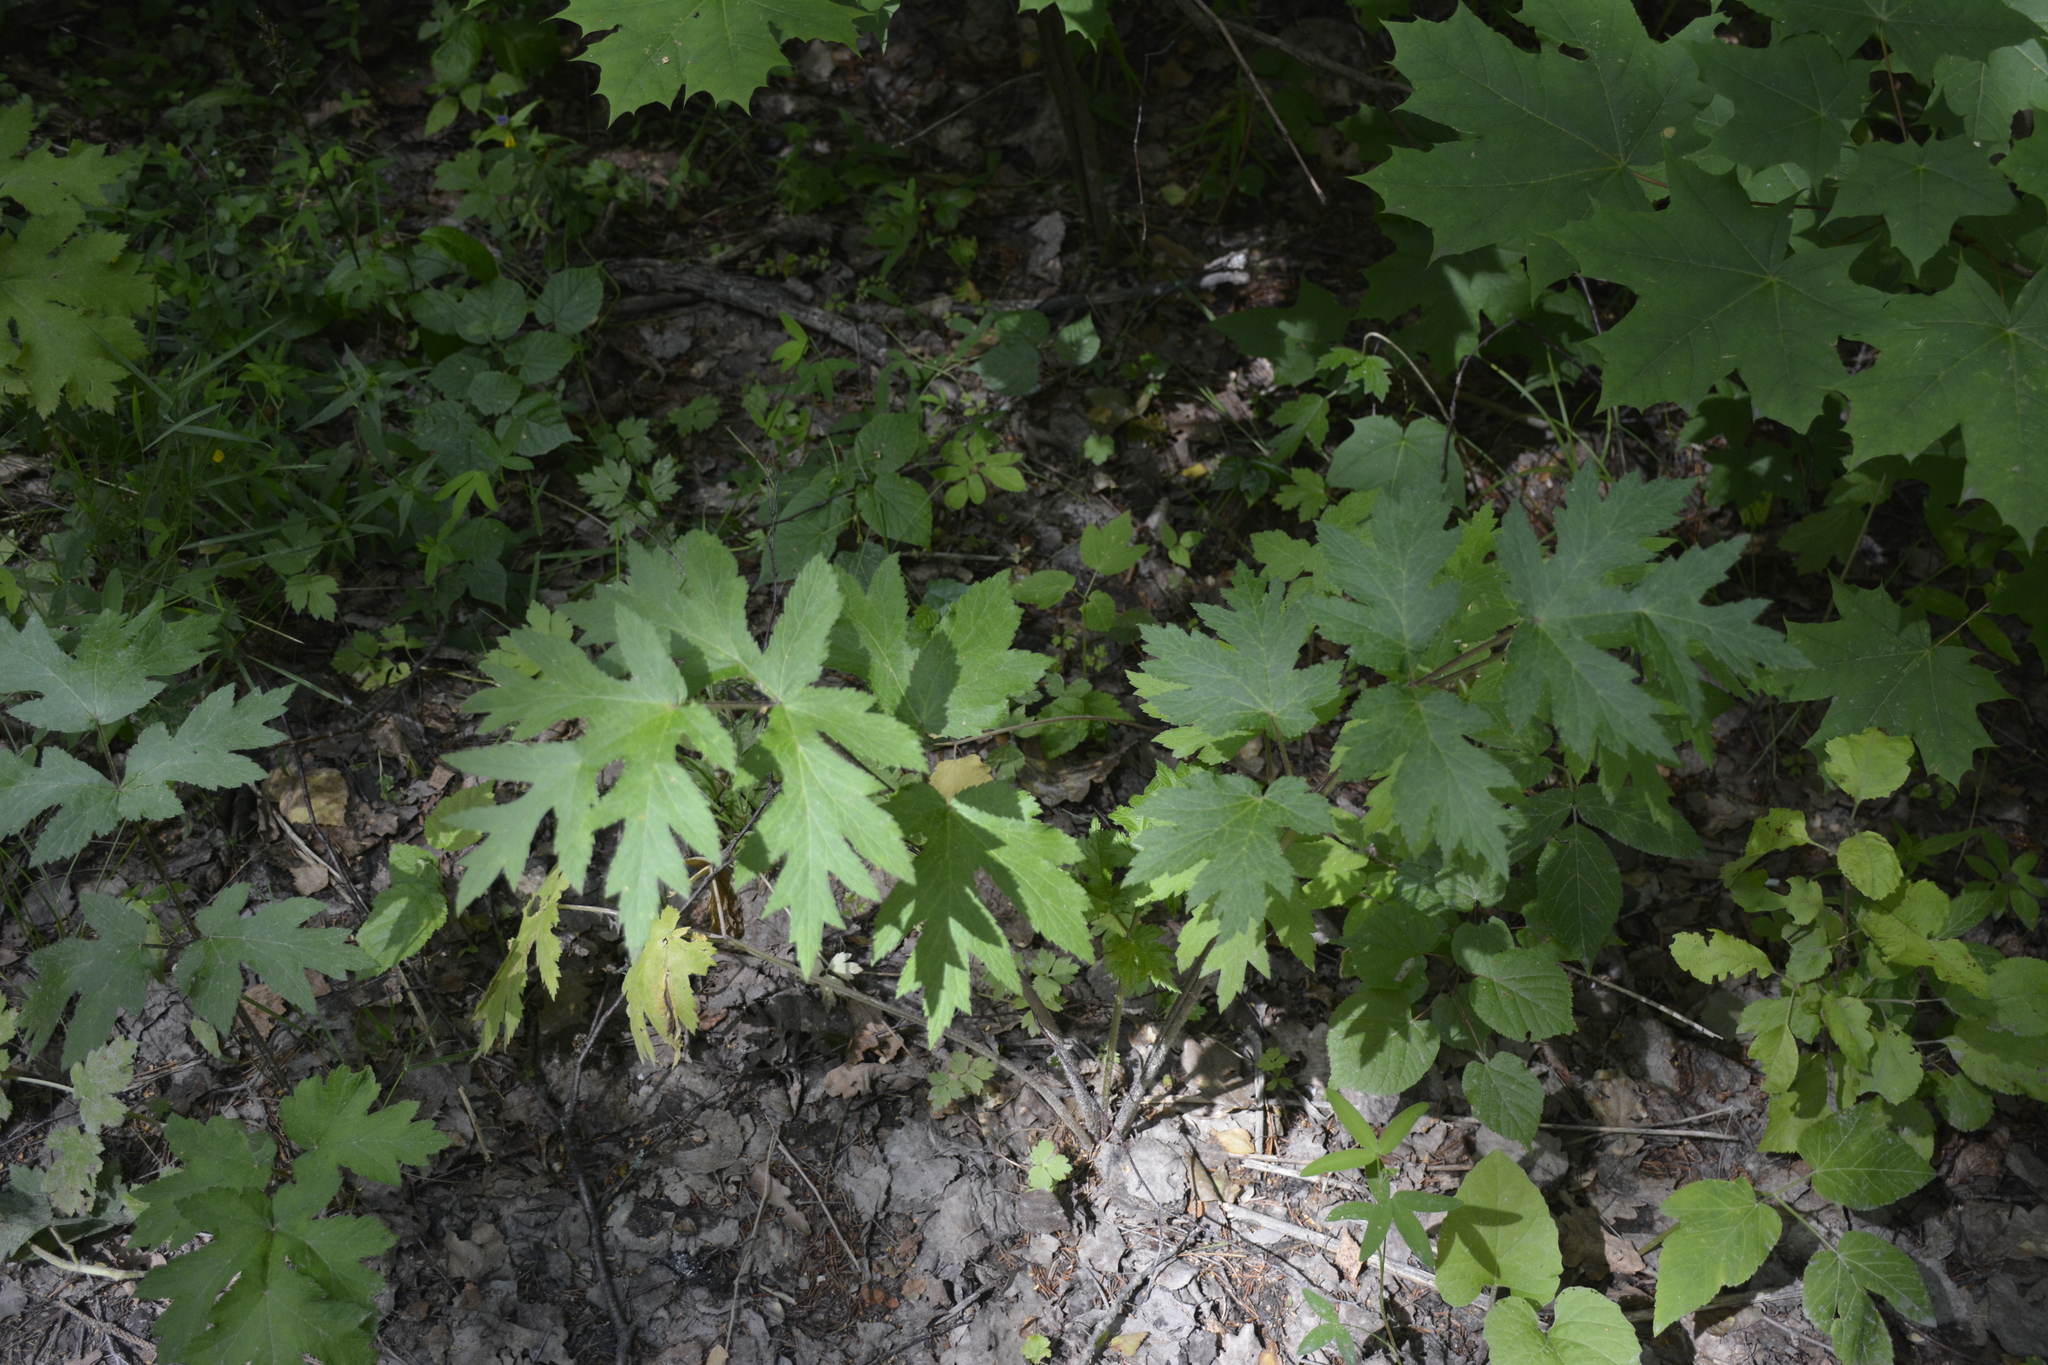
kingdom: Plantae
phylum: Tracheophyta
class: Magnoliopsida
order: Apiales
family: Apiaceae
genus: Heracleum
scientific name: Heracleum sphondylium
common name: Hogweed
